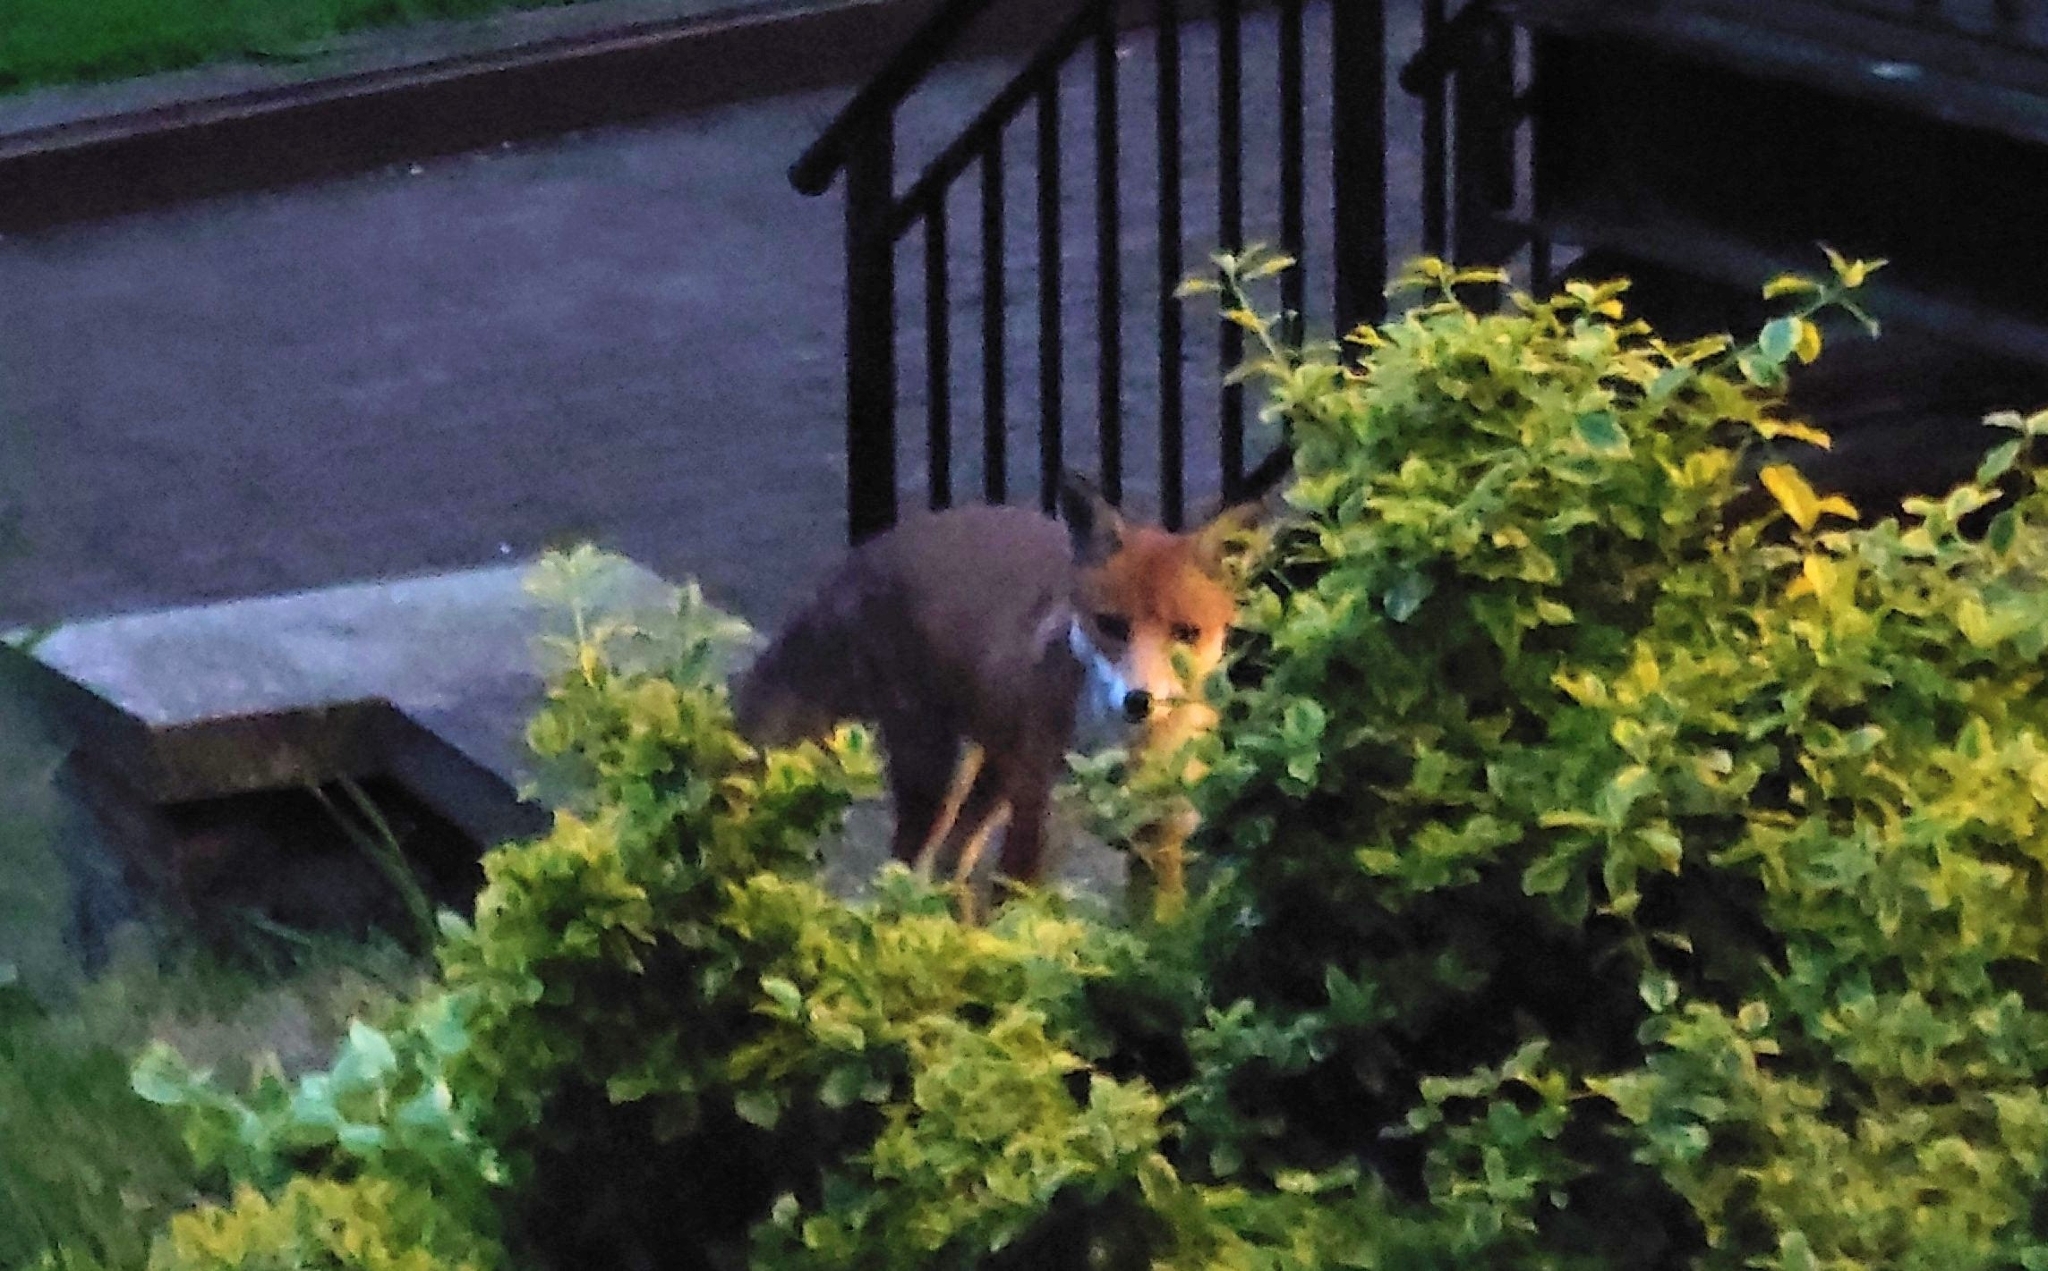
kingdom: Animalia
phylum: Chordata
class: Mammalia
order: Carnivora
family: Canidae
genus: Vulpes
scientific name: Vulpes vulpes
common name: Red fox
